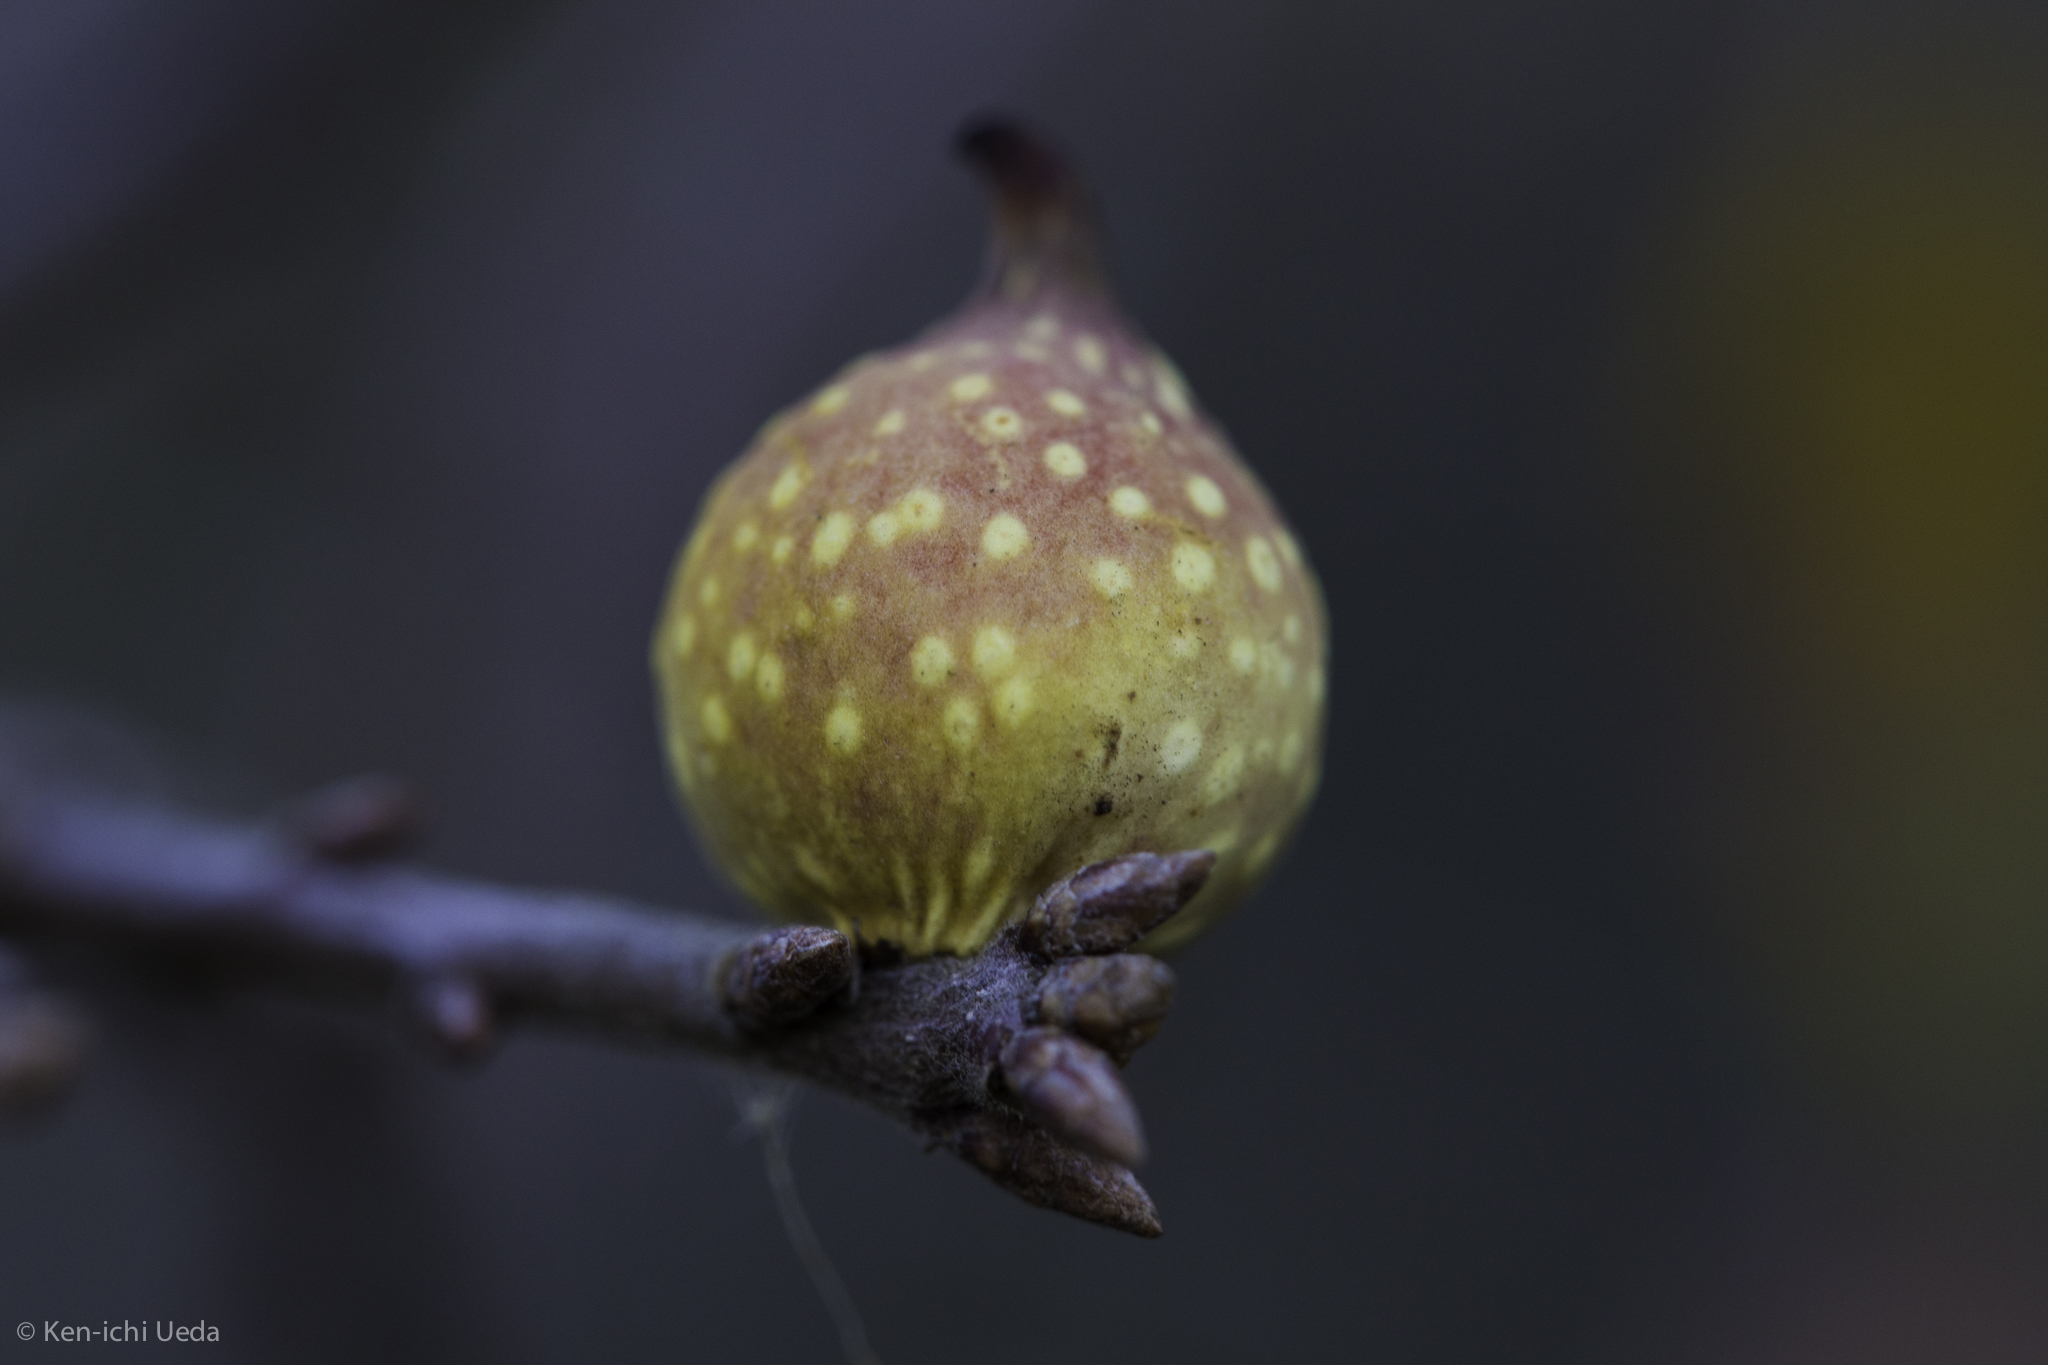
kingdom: Animalia
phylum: Arthropoda
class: Insecta
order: Hymenoptera
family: Cynipidae
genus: Burnettweldia
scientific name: Burnettweldia
